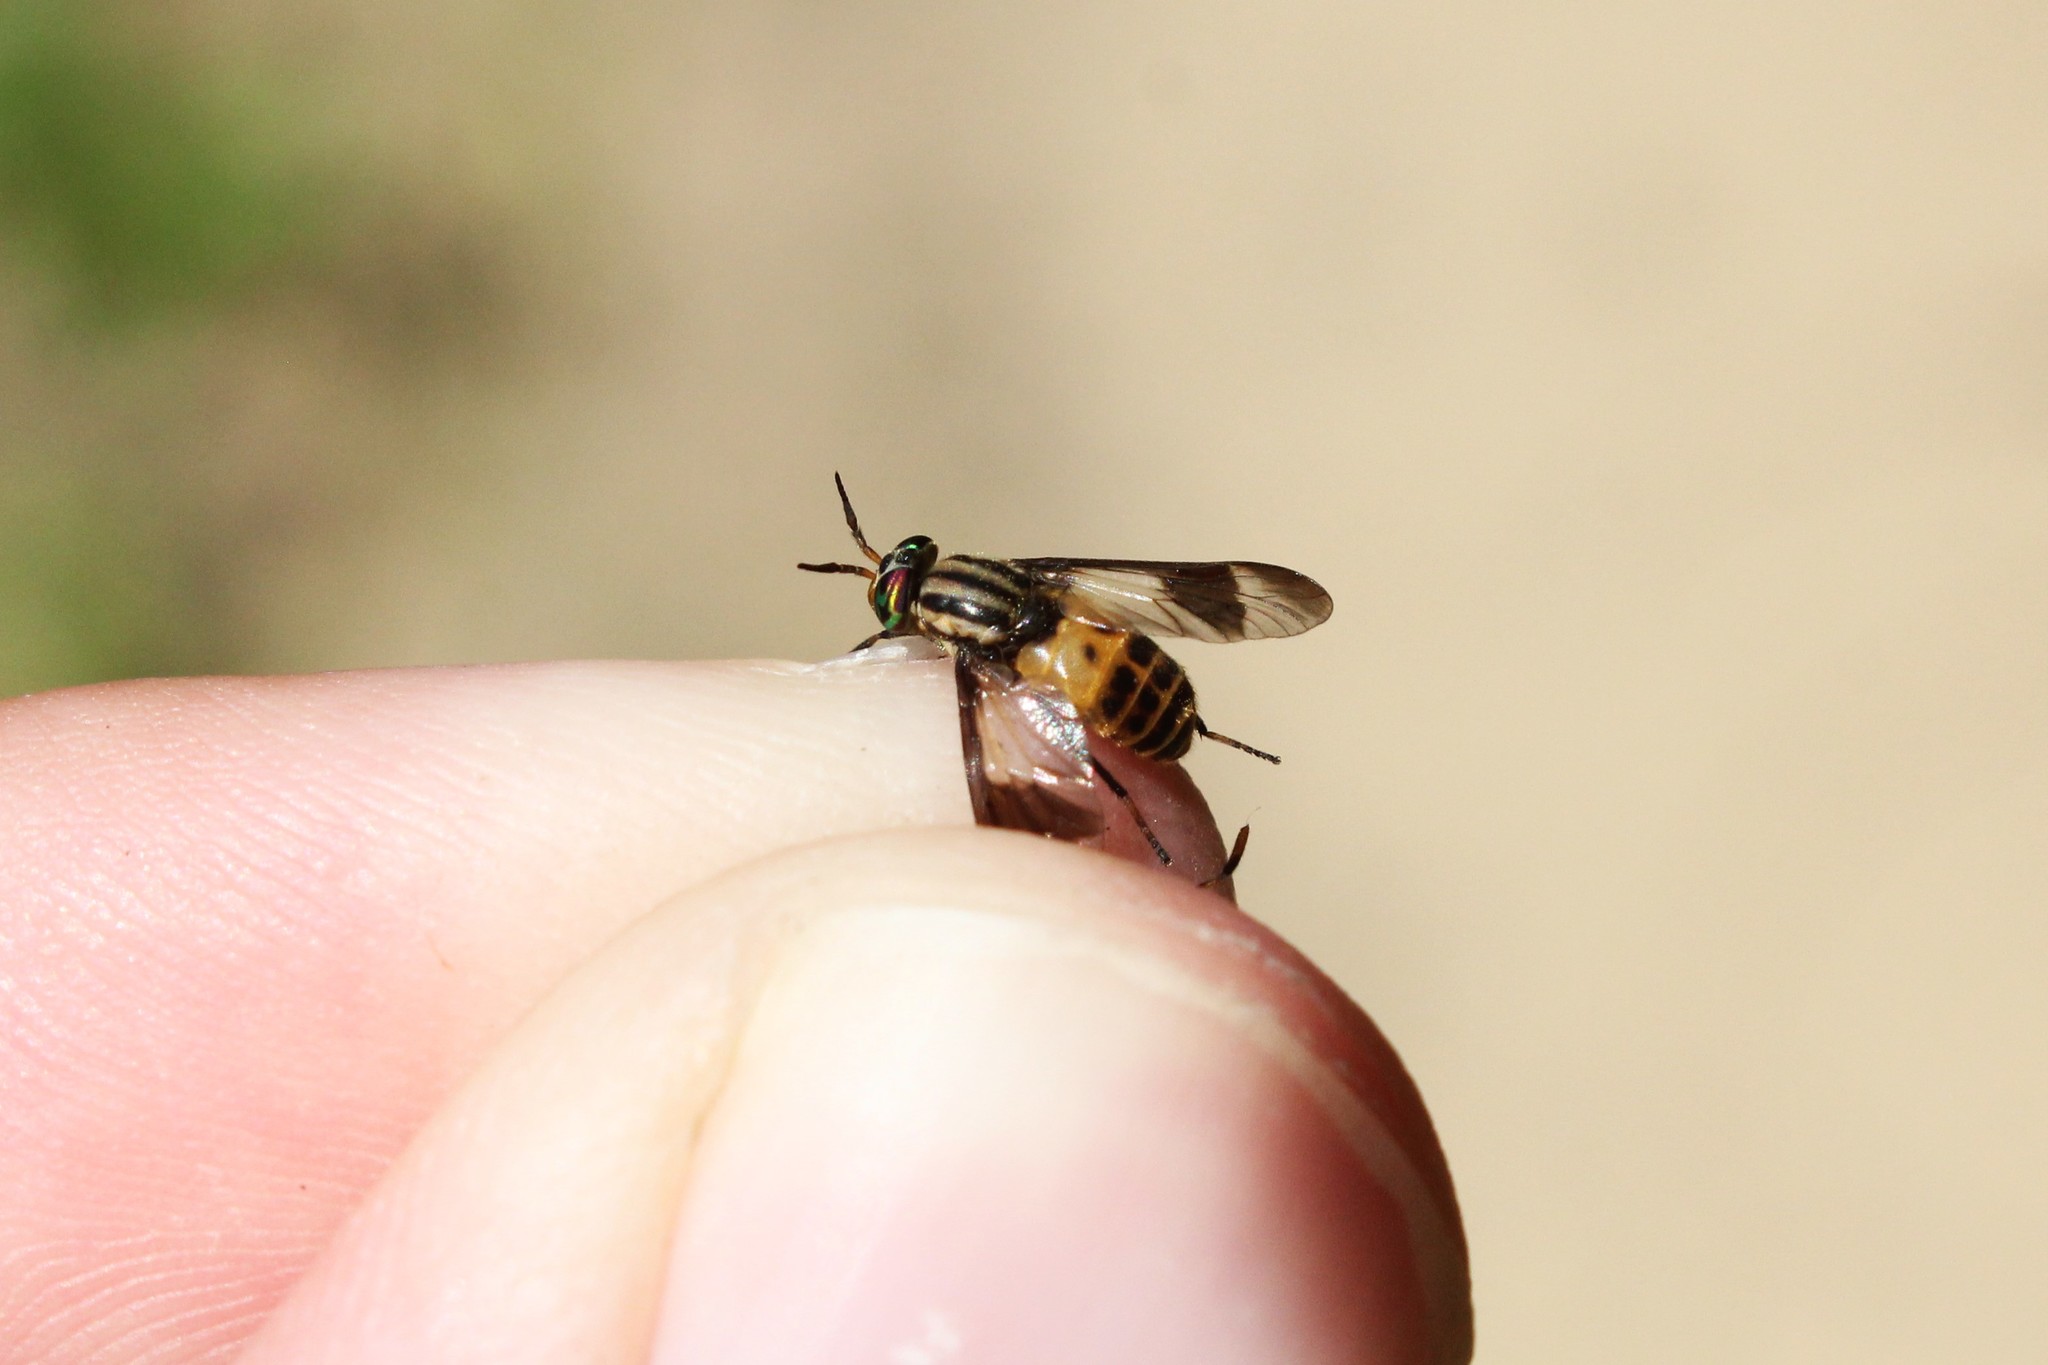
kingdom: Animalia
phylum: Arthropoda
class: Insecta
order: Diptera
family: Tabanidae
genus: Chrysops
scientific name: Chrysops geminatus
